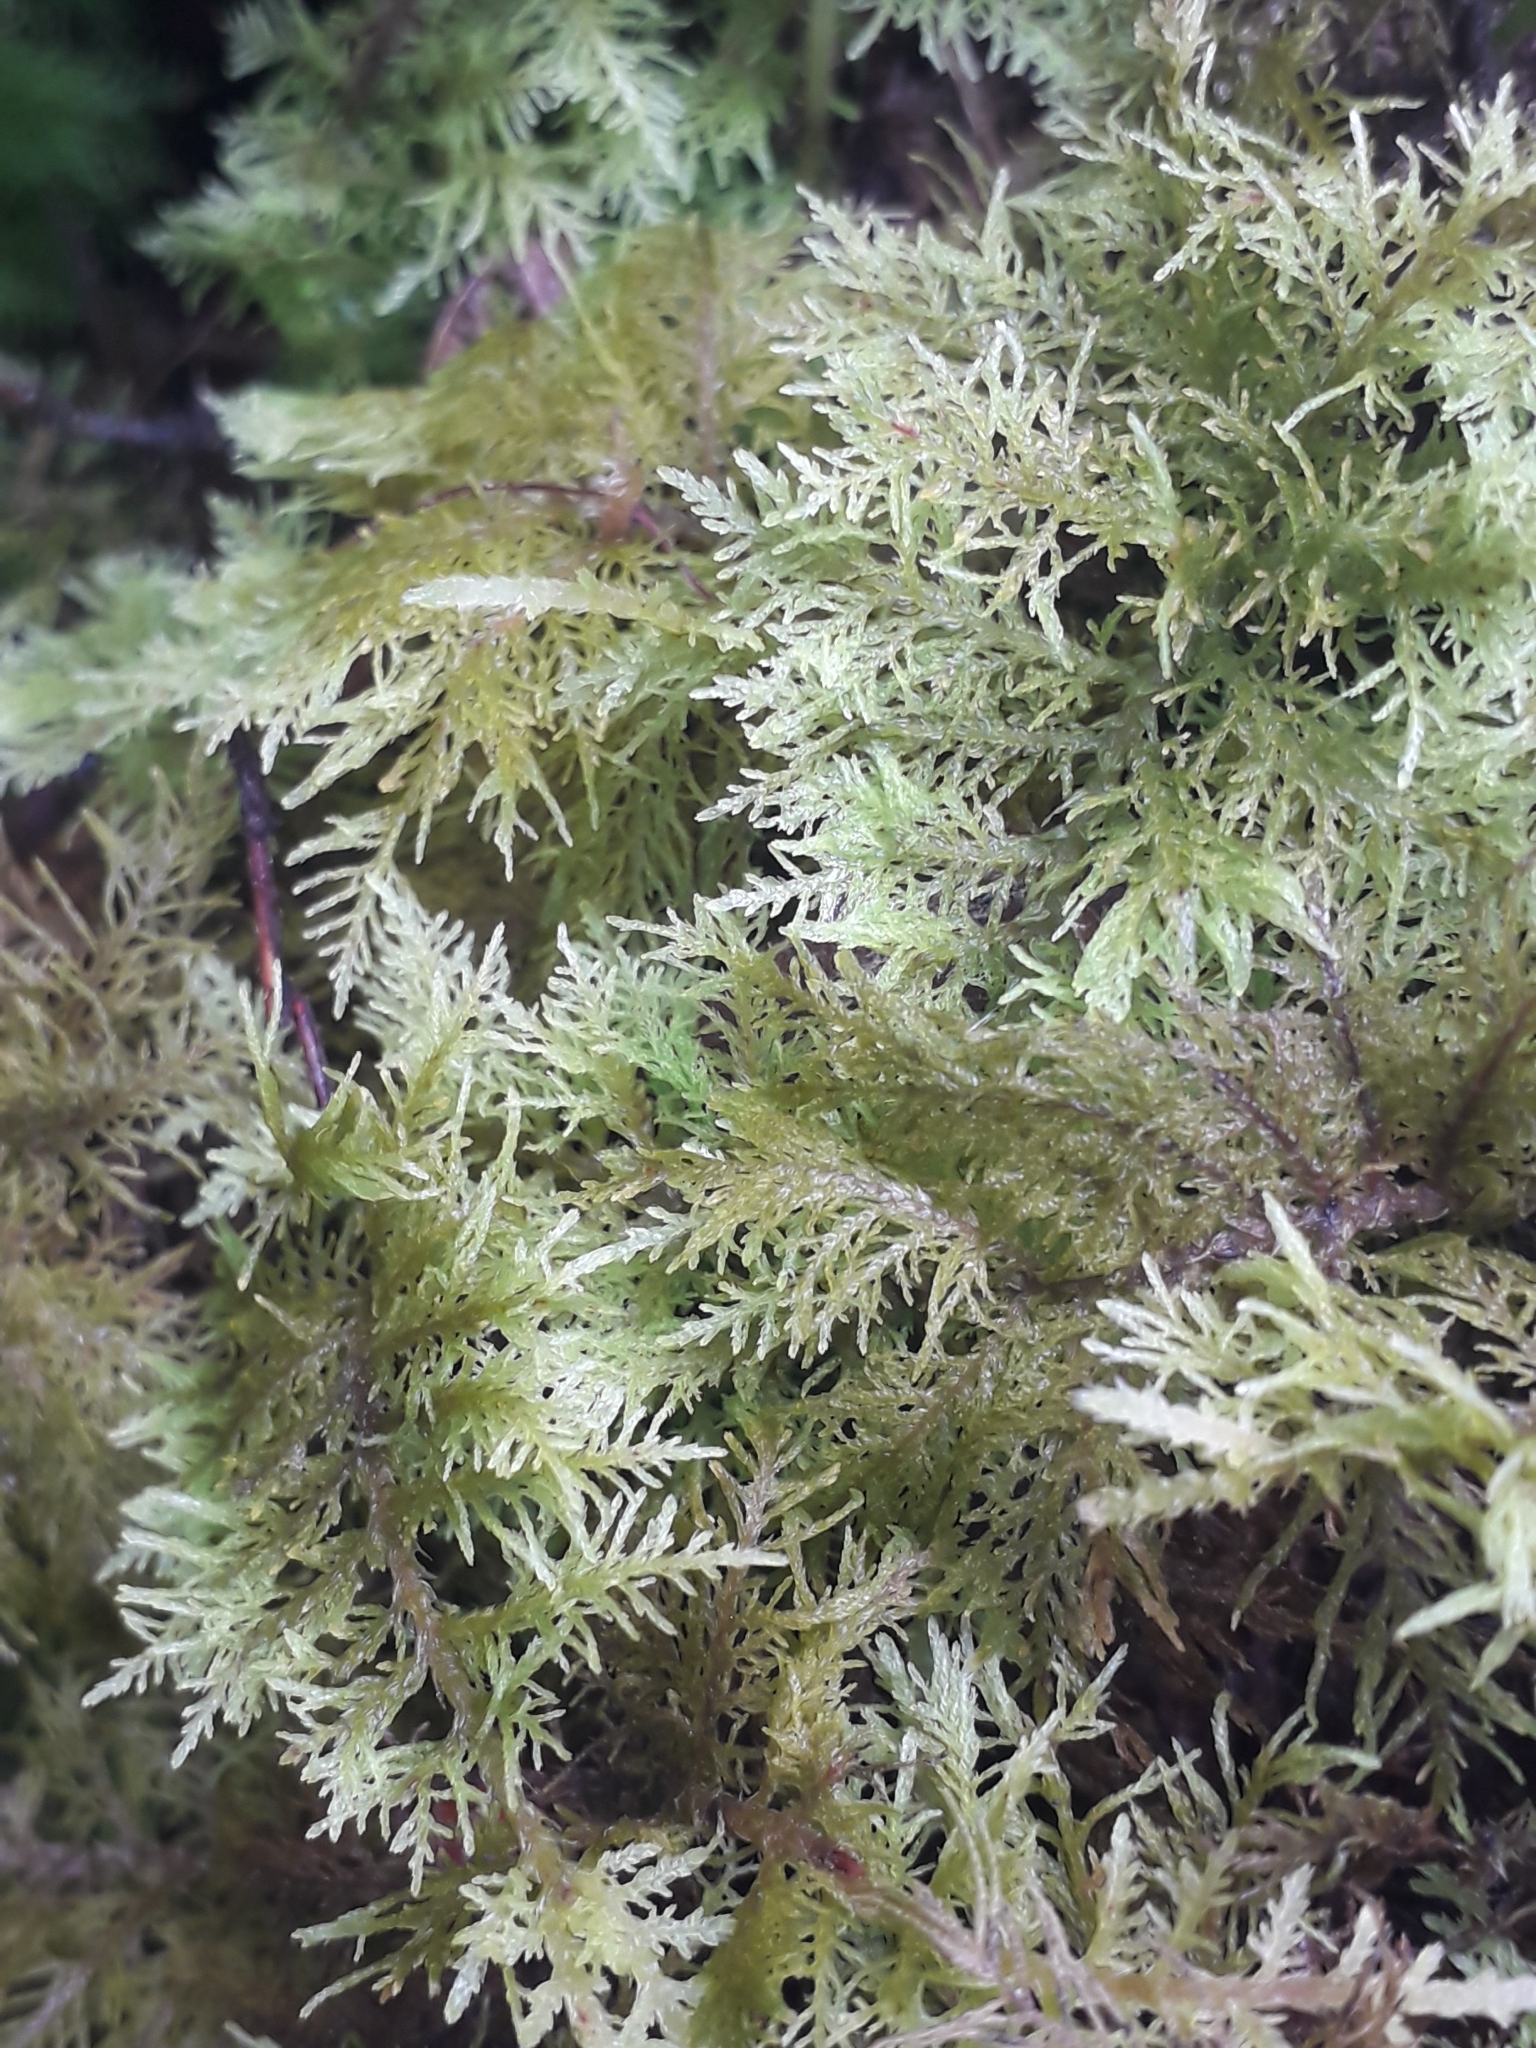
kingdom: Plantae
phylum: Bryophyta
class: Bryopsida
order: Hypnales
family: Thuidiaceae
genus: Thuidium
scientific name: Thuidium tamariscinum
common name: Common tamarisk-moss
